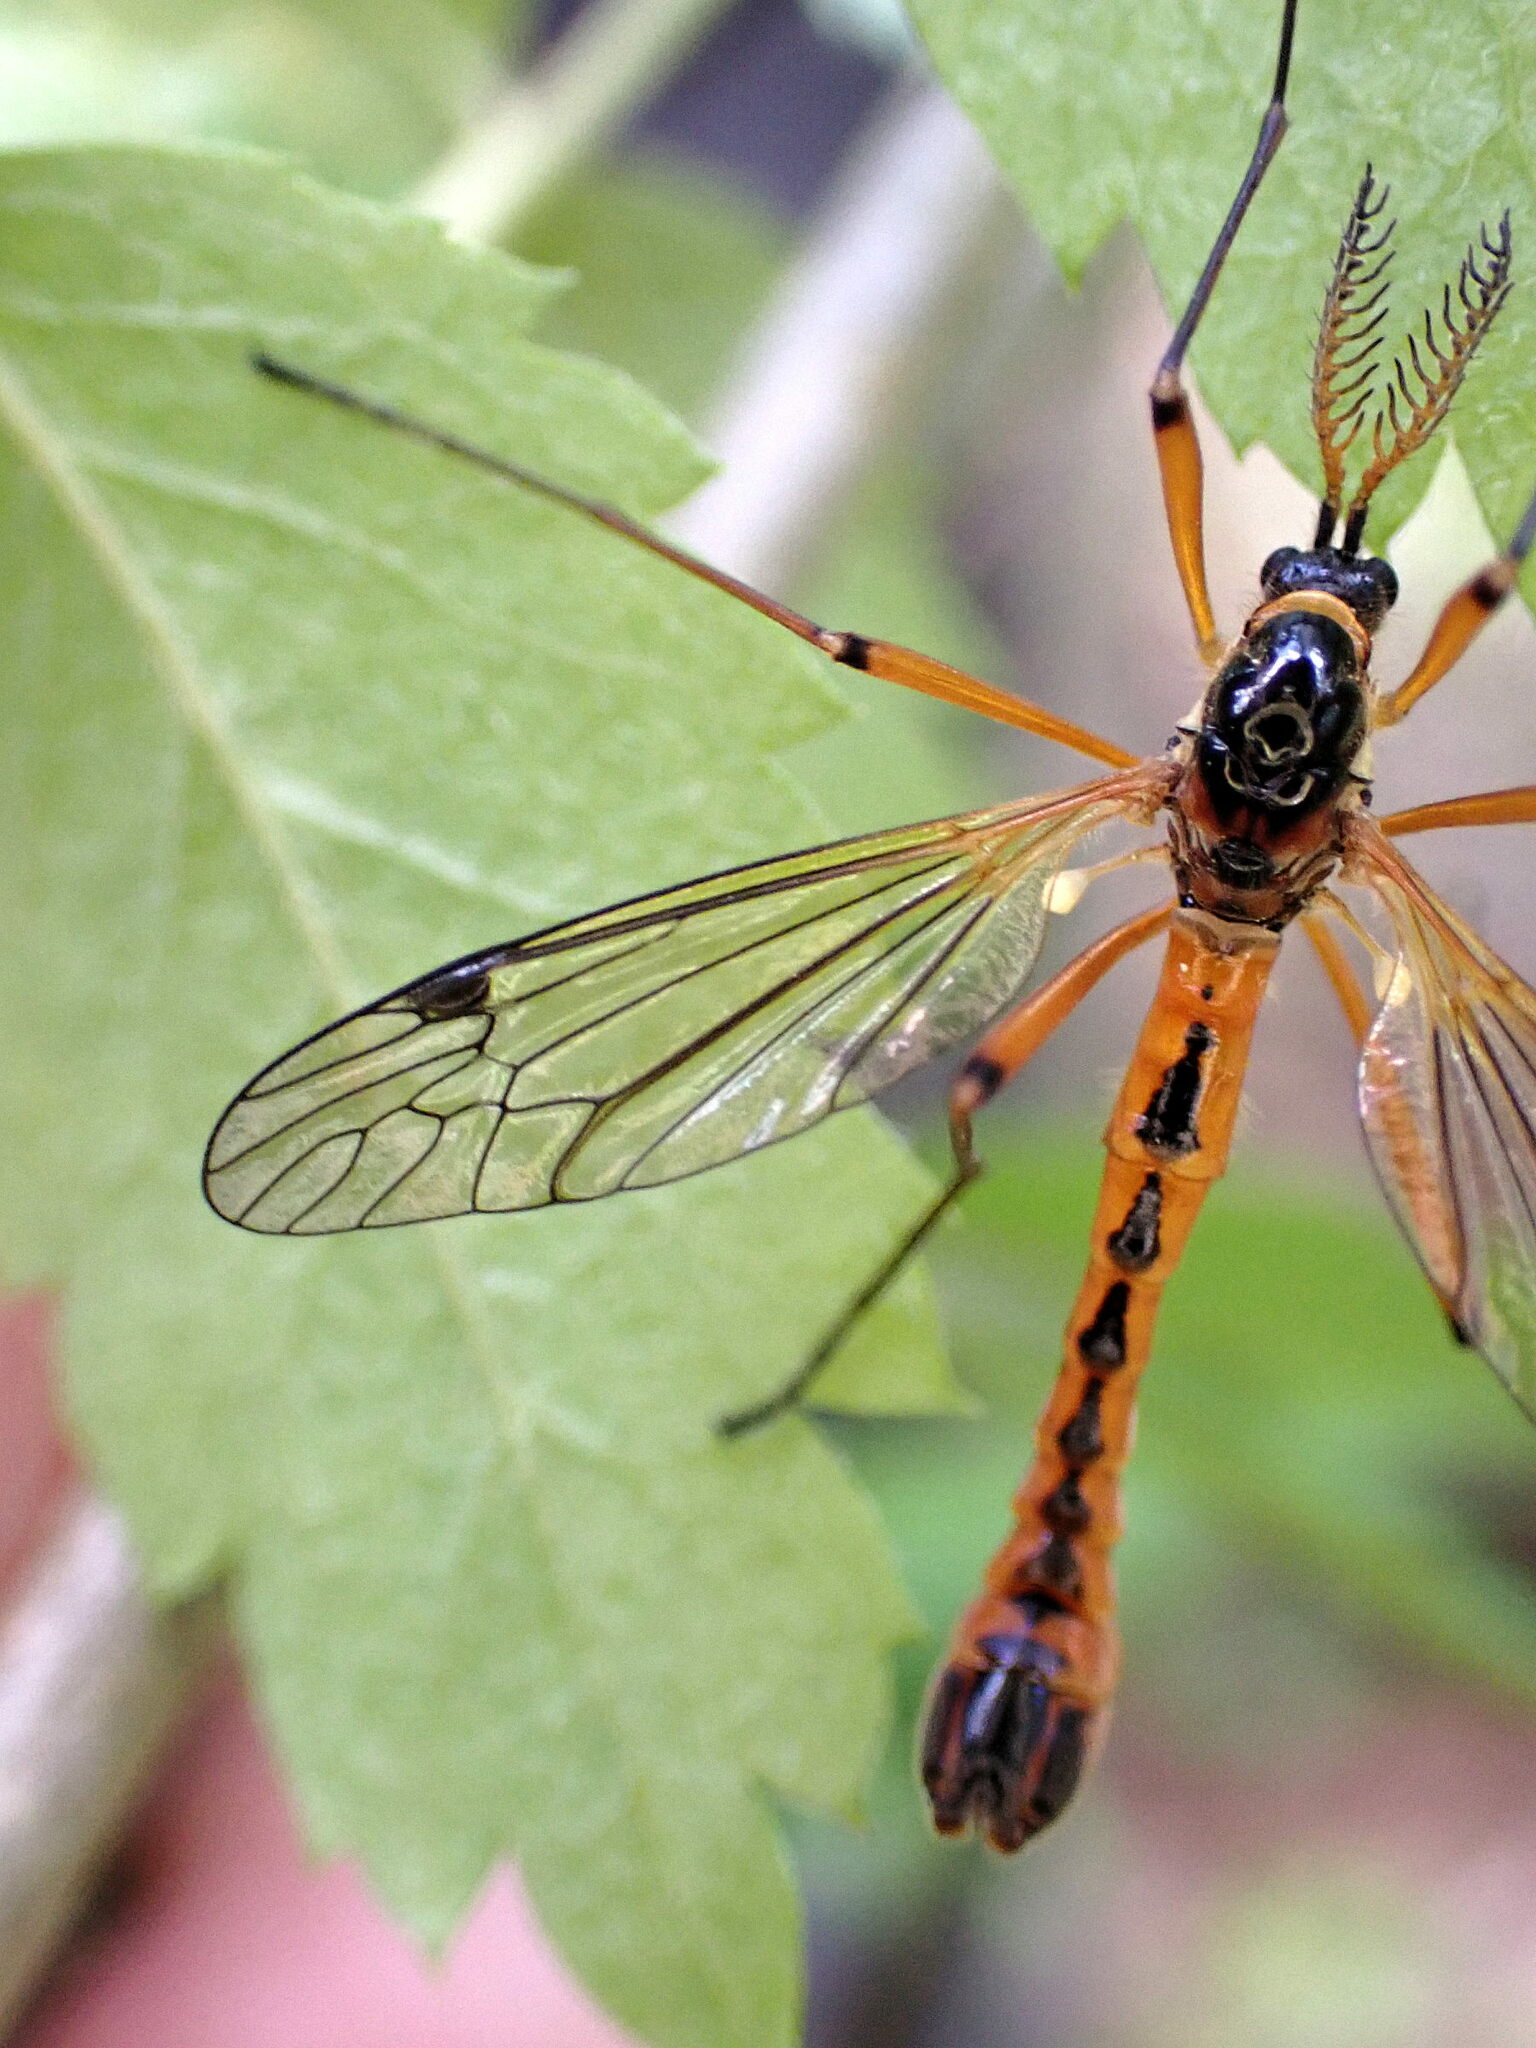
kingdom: Animalia
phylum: Arthropoda
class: Insecta
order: Diptera
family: Tipulidae
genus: Tanyptera
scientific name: Tanyptera atrata
